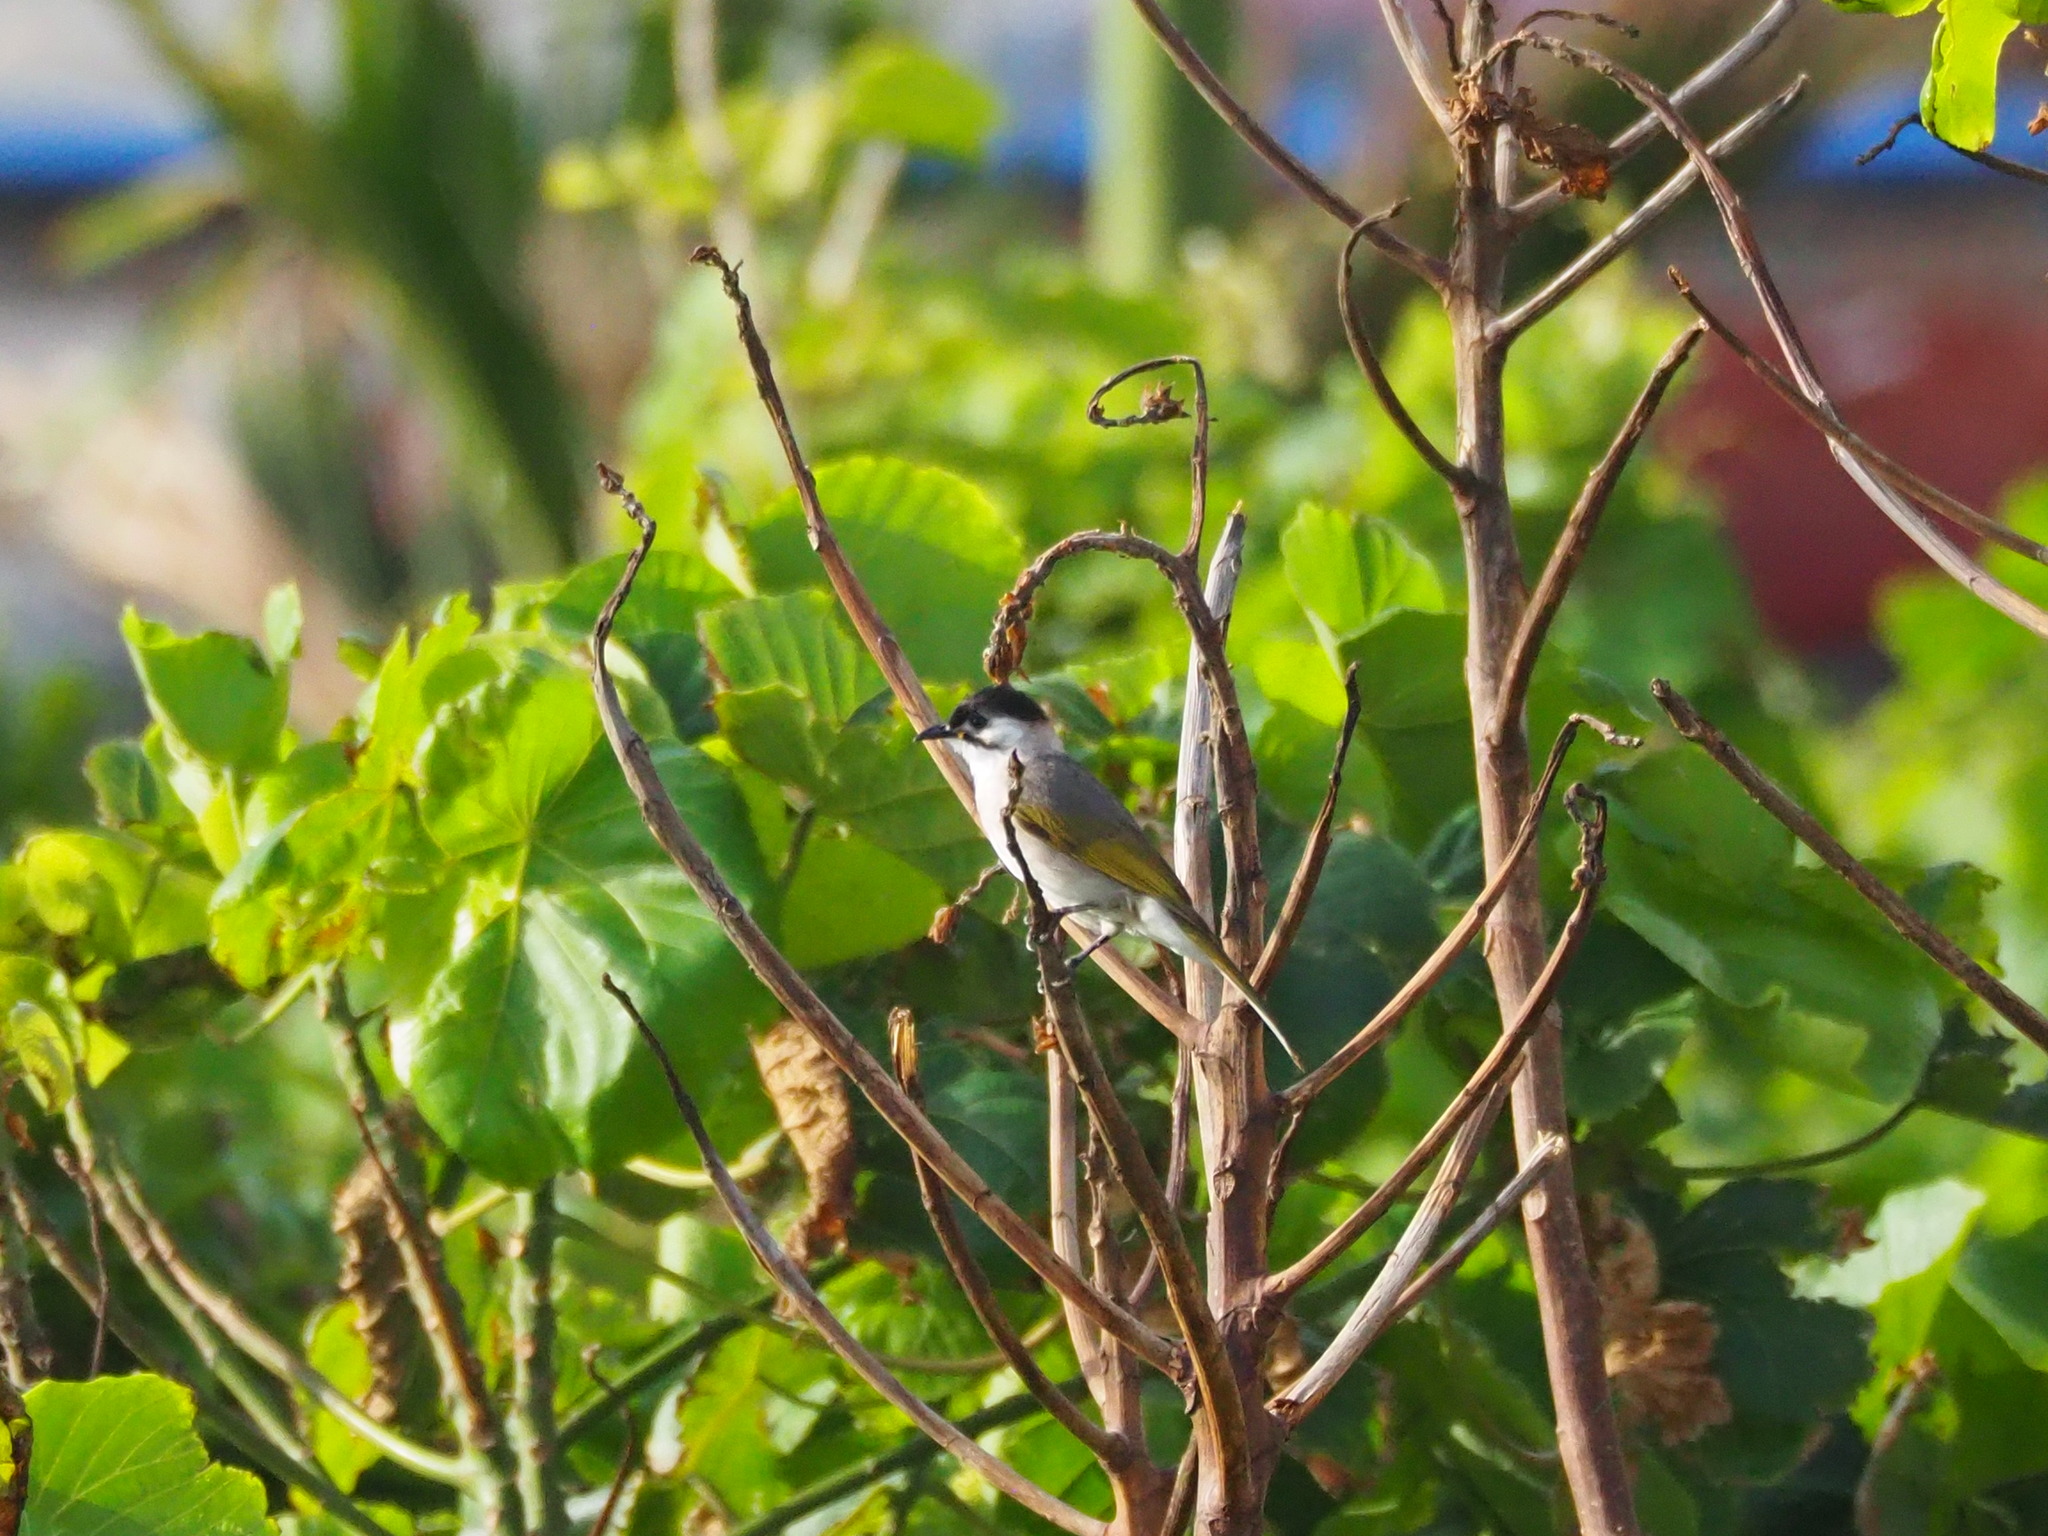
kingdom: Animalia
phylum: Chordata
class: Aves
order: Passeriformes
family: Pycnonotidae
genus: Pycnonotus
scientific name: Pycnonotus taivanus
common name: Styan's bulbul
